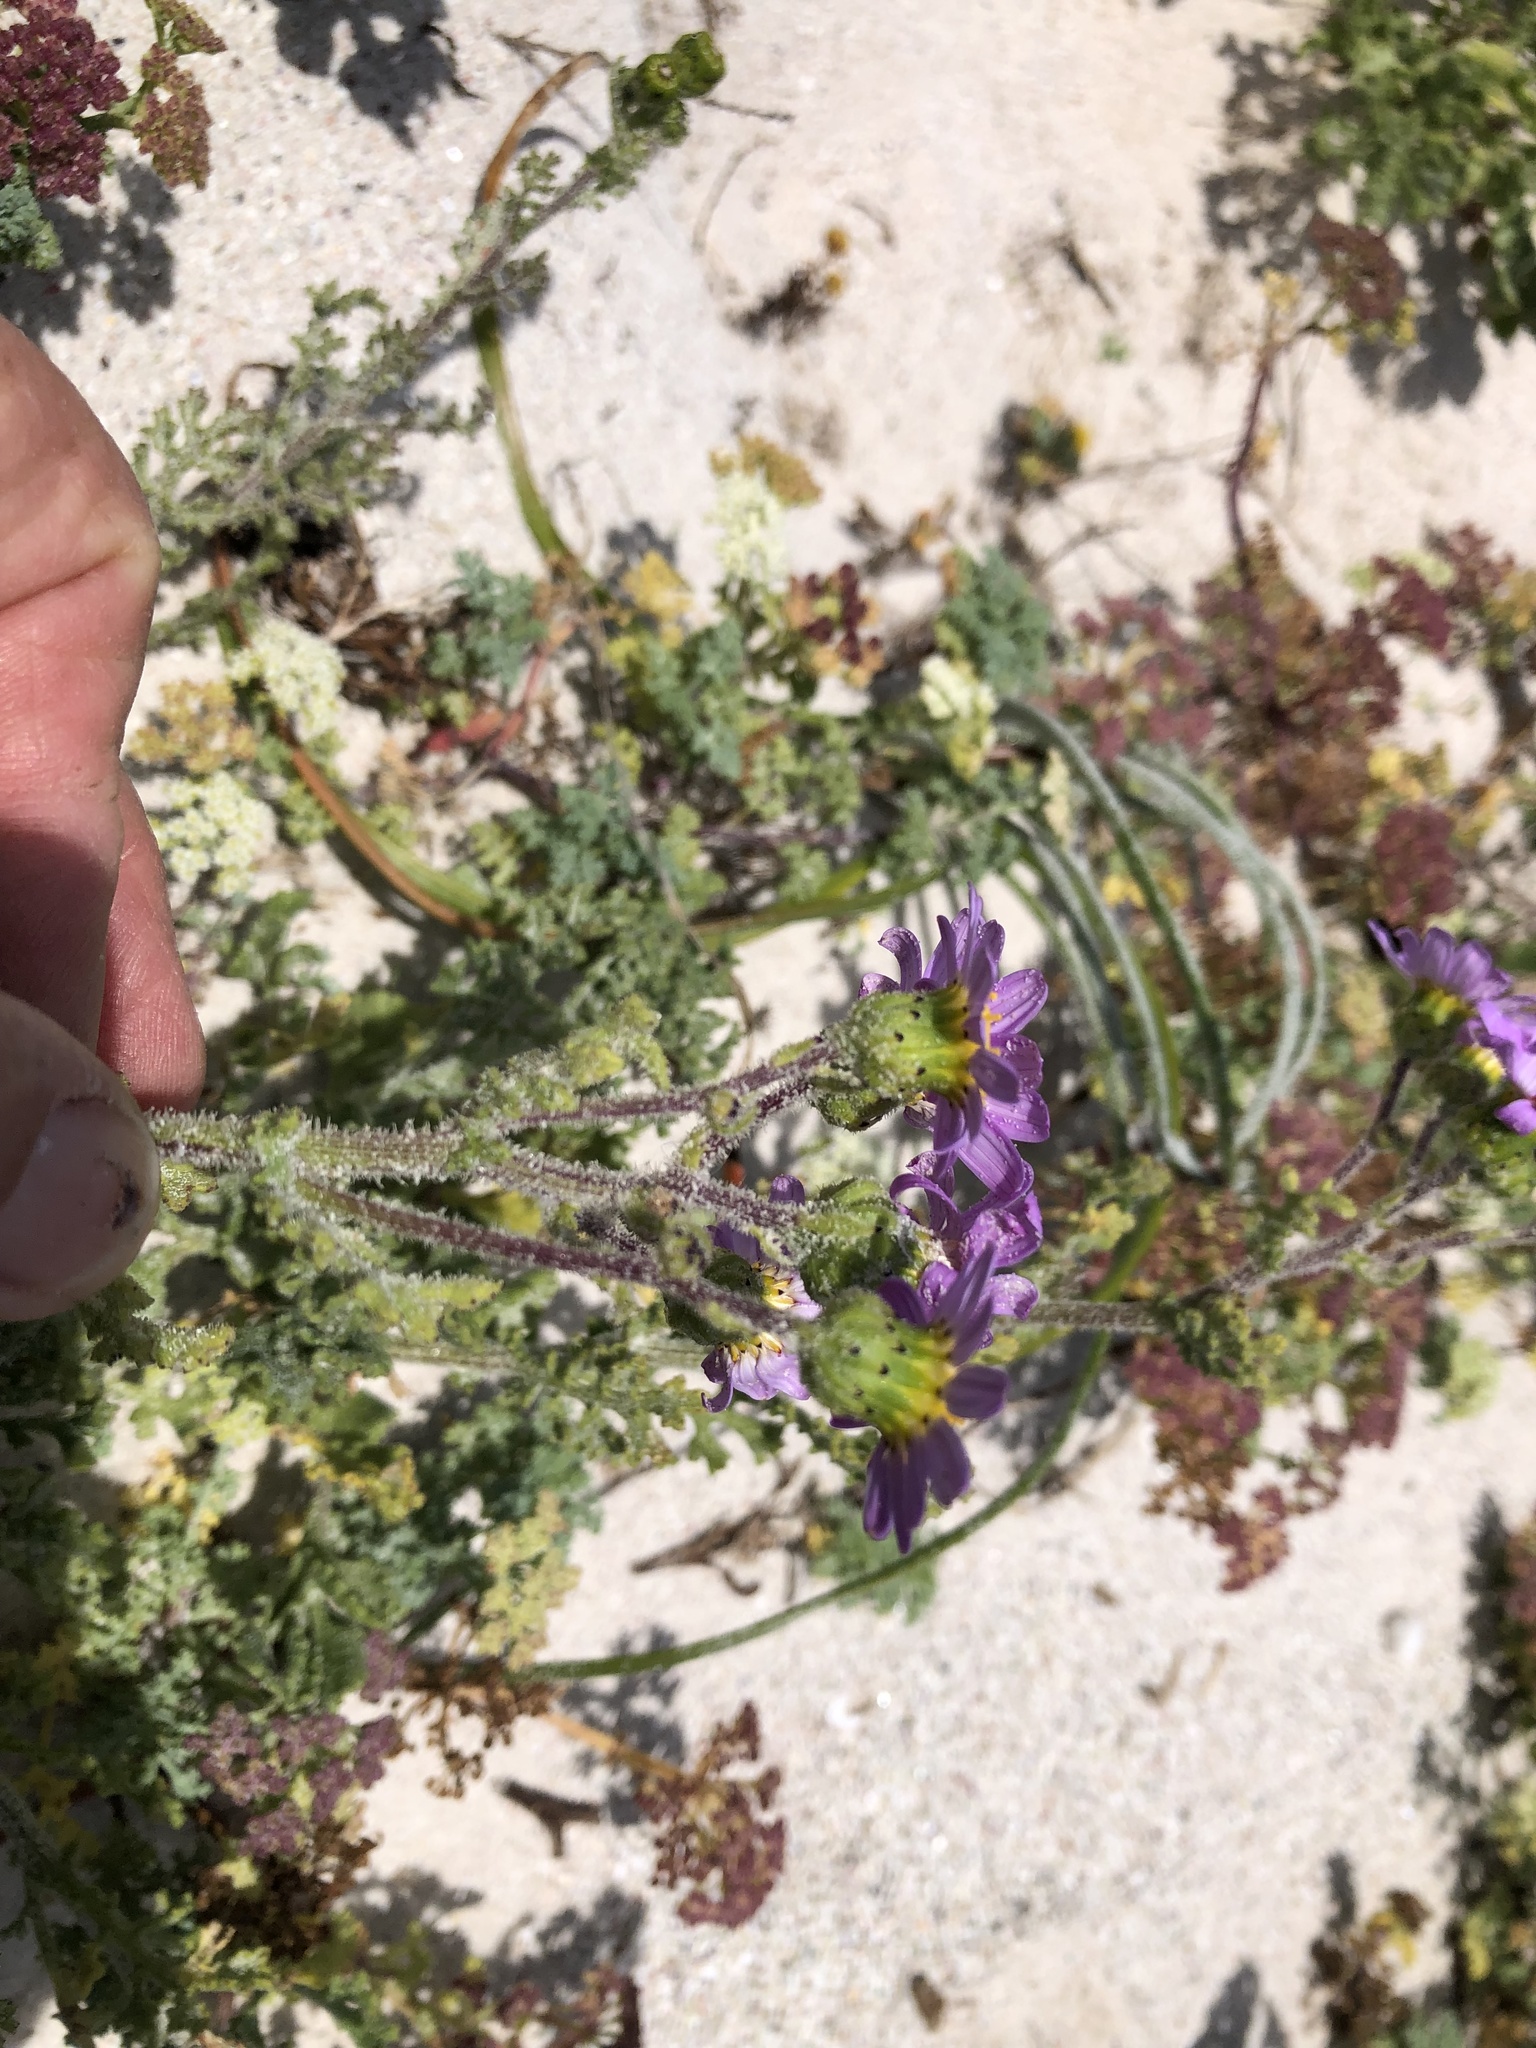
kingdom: Plantae
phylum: Tracheophyta
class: Magnoliopsida
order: Asterales
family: Asteraceae
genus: Senecio
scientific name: Senecio arenarius
